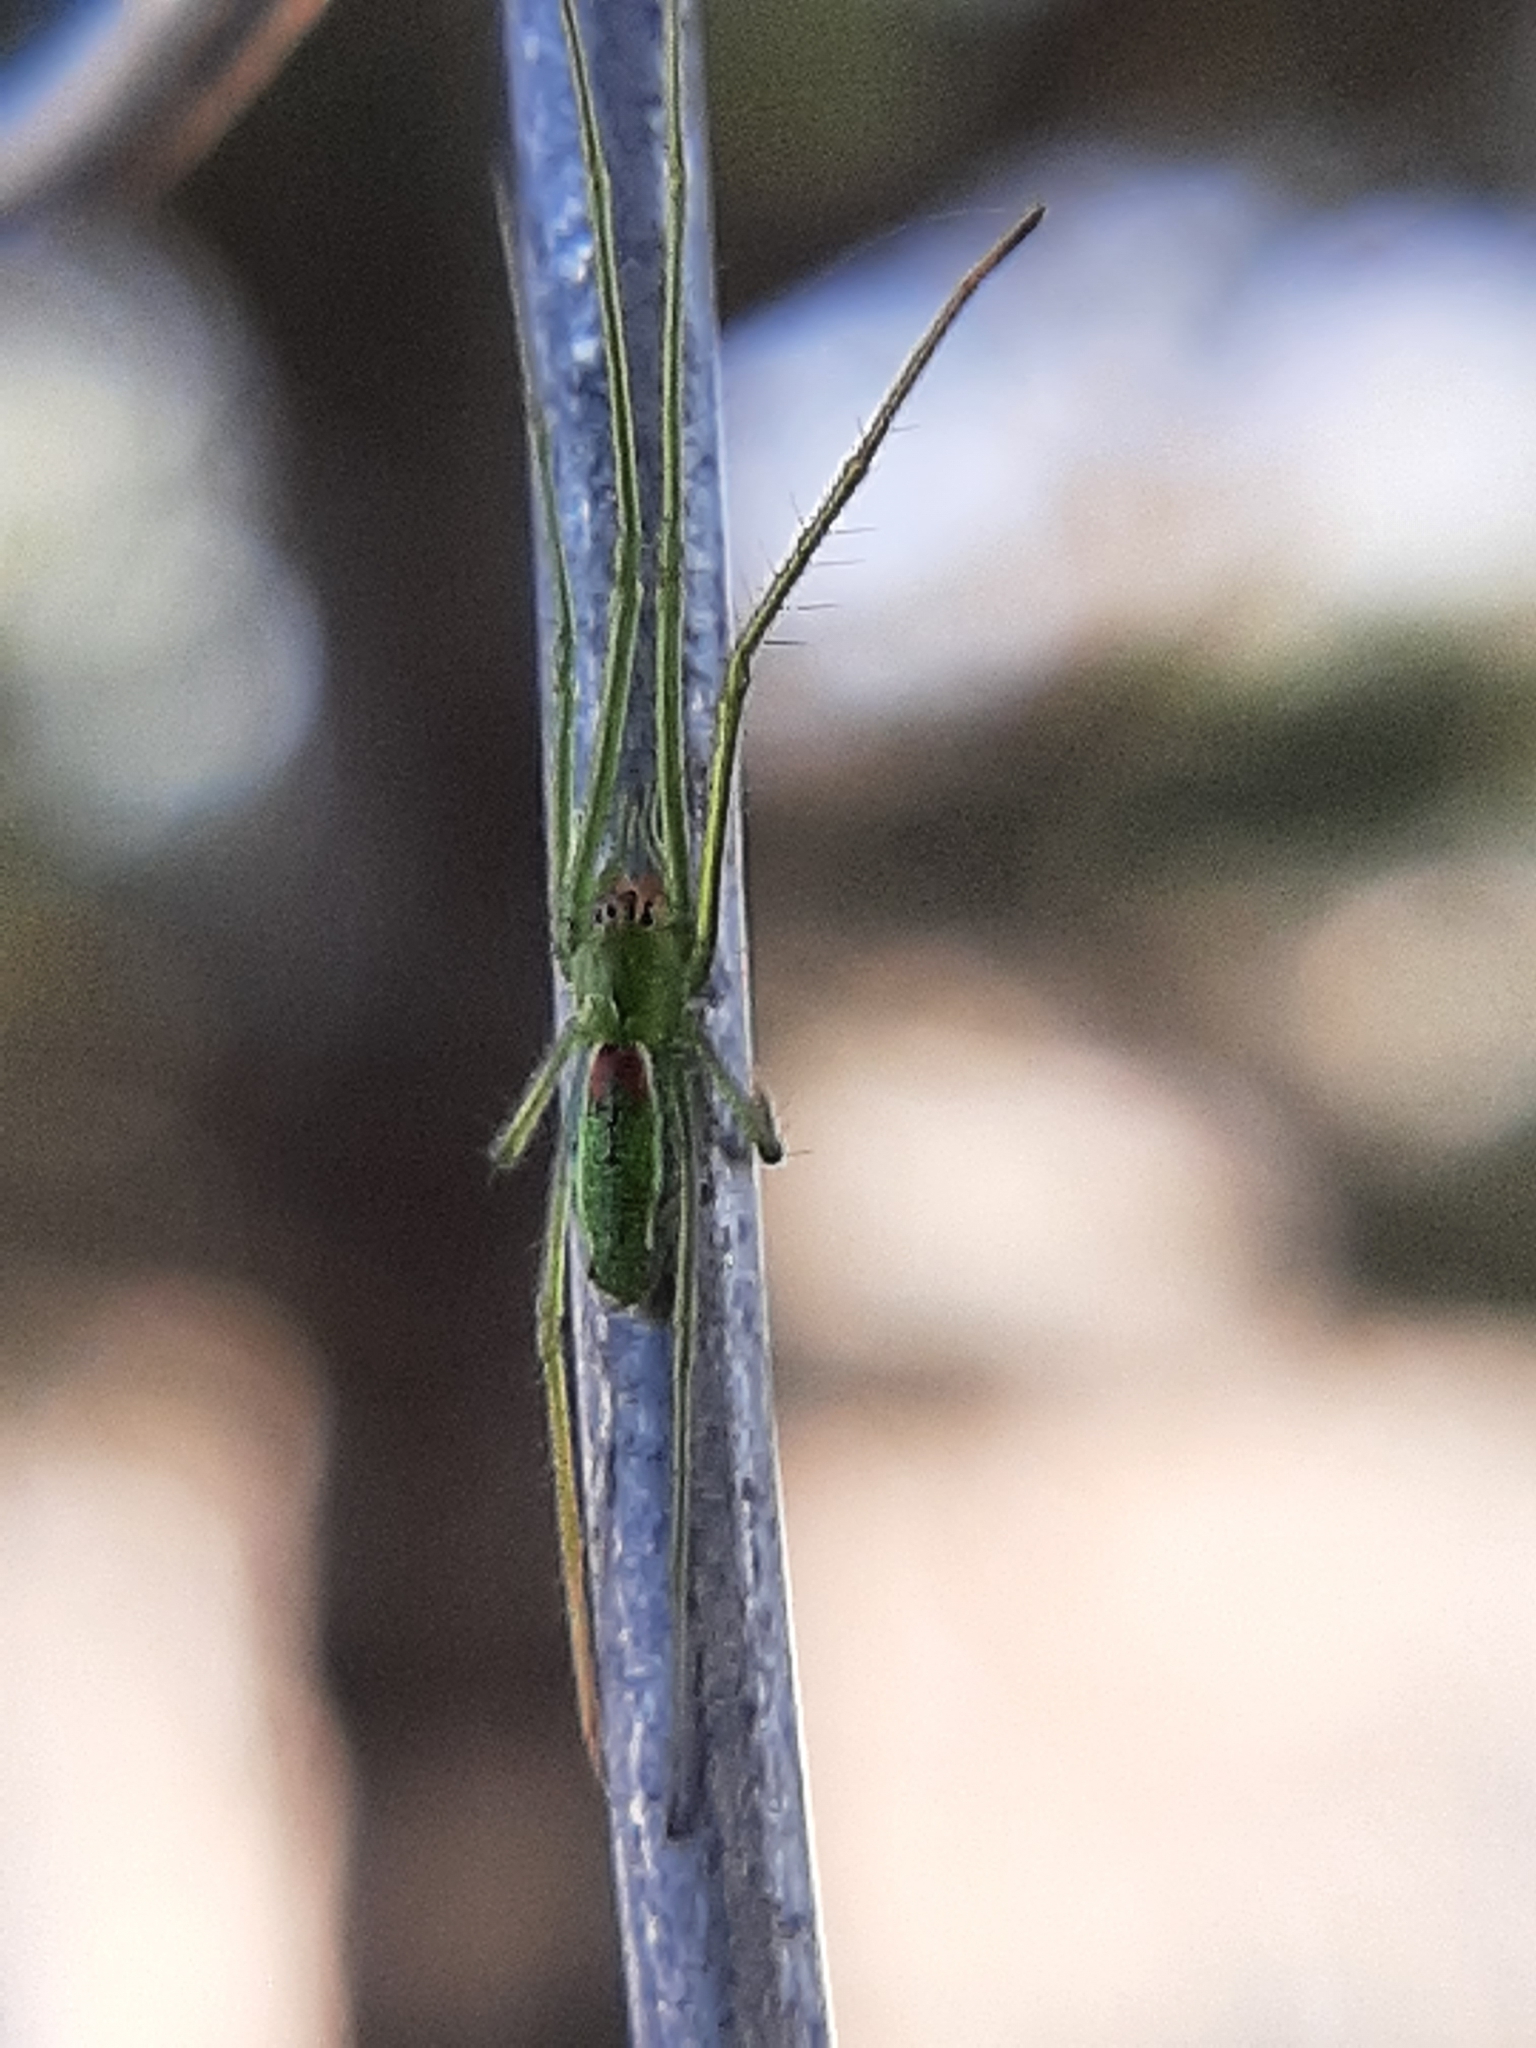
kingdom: Animalia
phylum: Arthropoda
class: Arachnida
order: Araneae
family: Tetragnathidae
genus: Tetragnatha
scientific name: Tetragnatha viridis
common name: Green long-jawed spider
